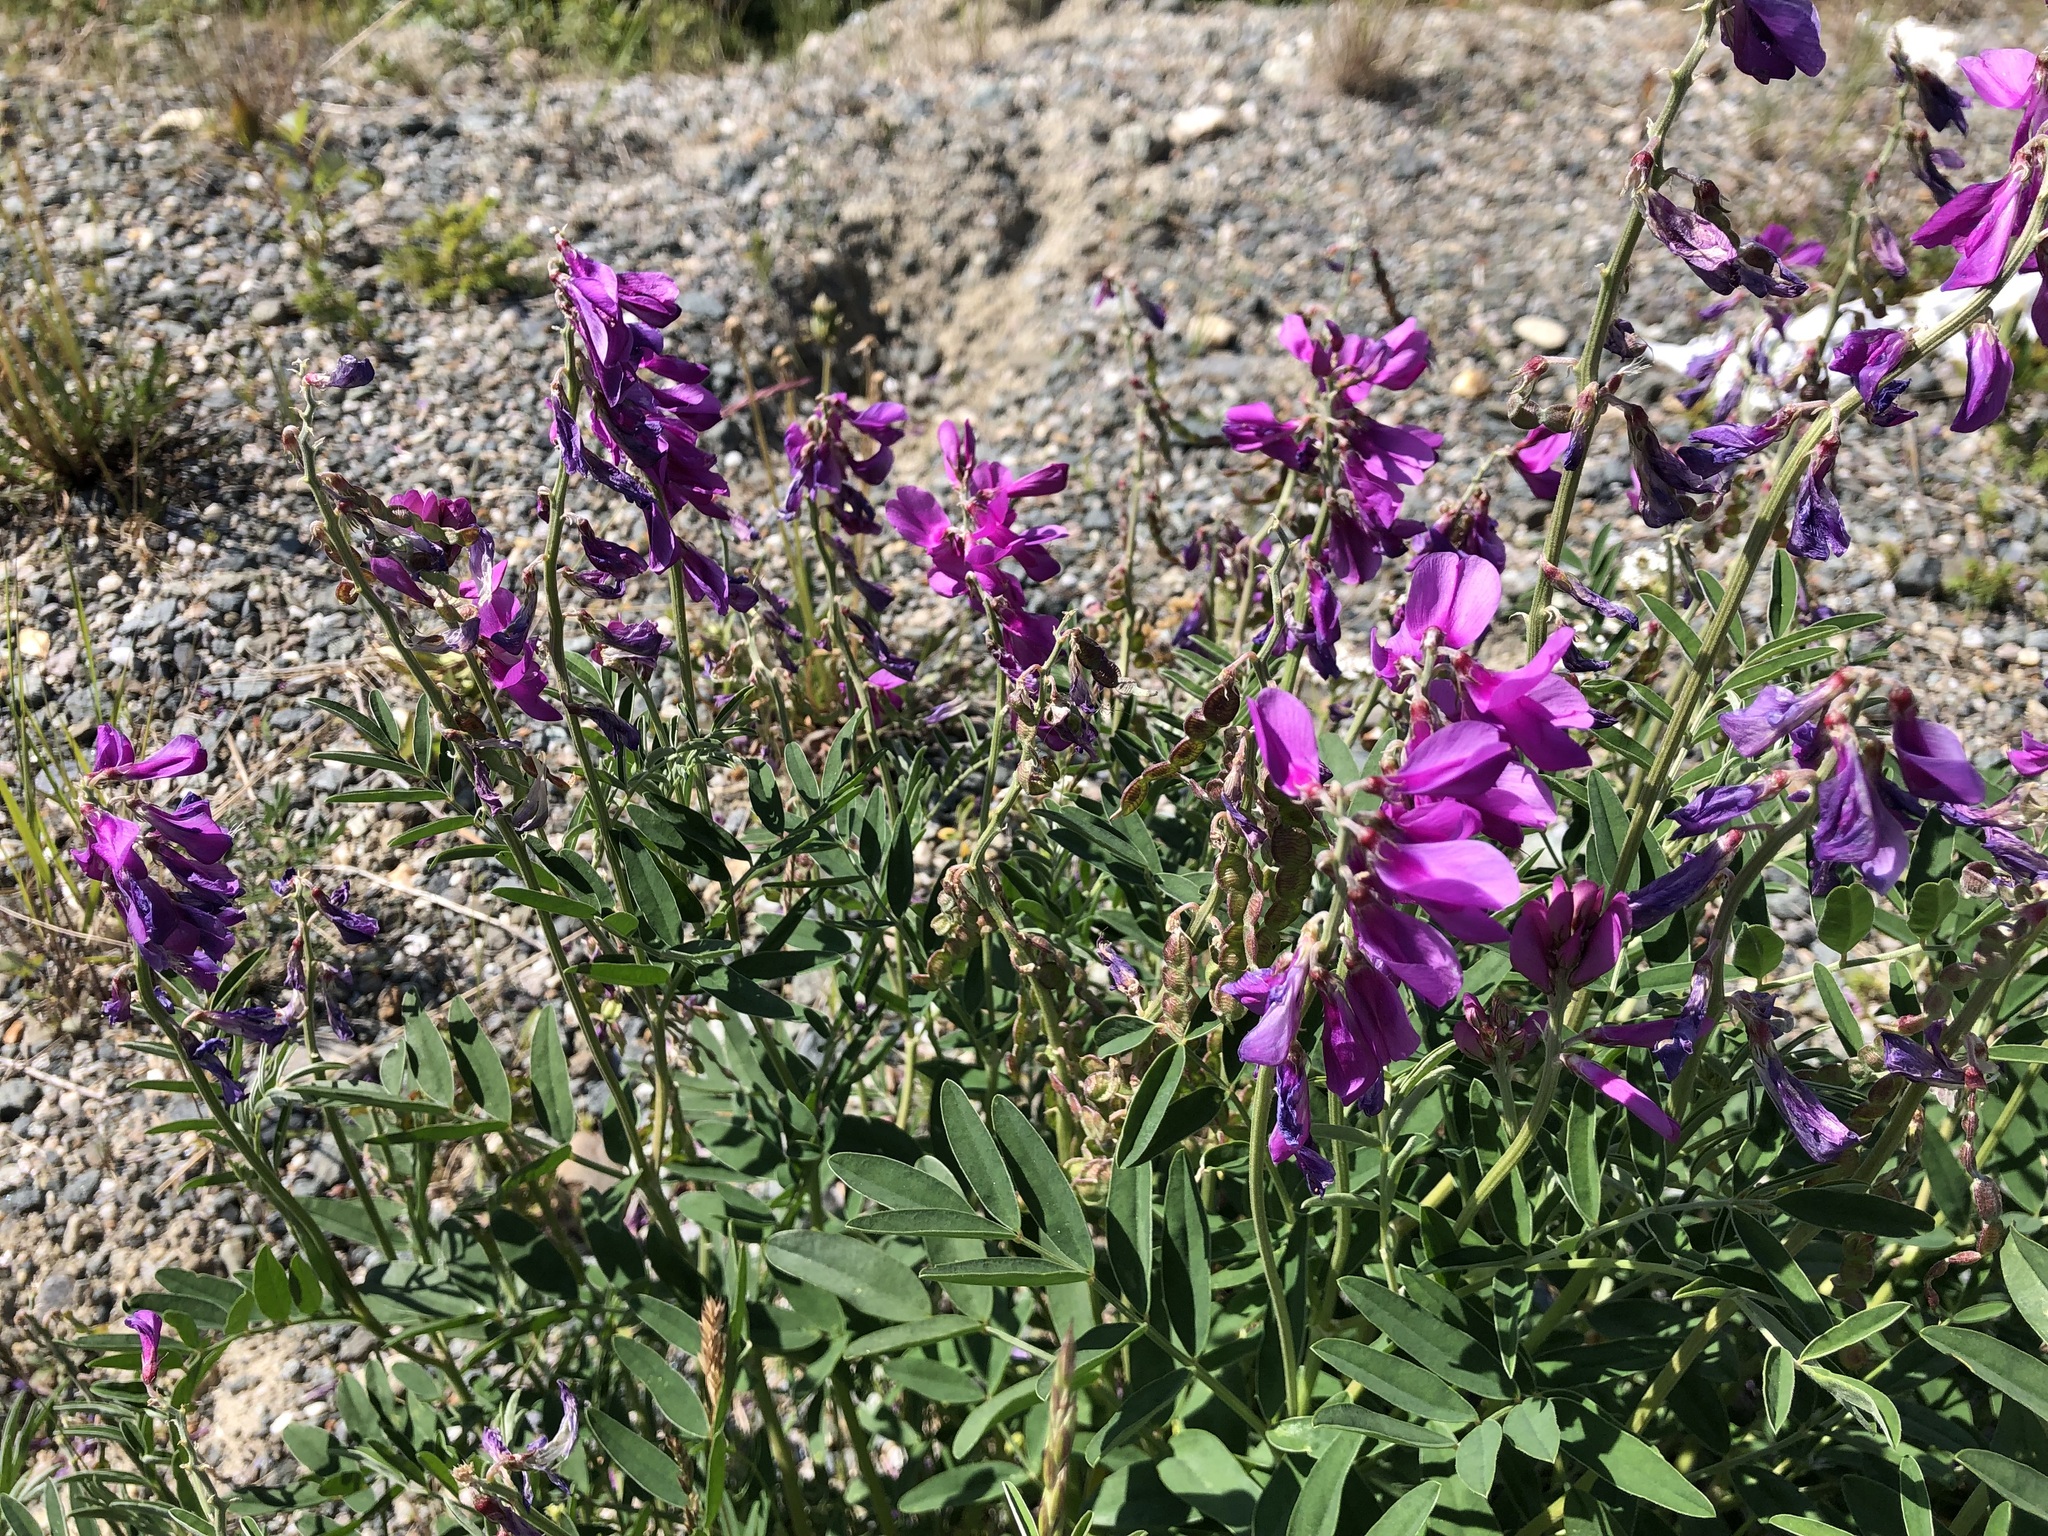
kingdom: Plantae
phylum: Tracheophyta
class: Magnoliopsida
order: Fabales
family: Fabaceae
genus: Hedysarum
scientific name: Hedysarum boreale
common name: Northern sweet-vetch
